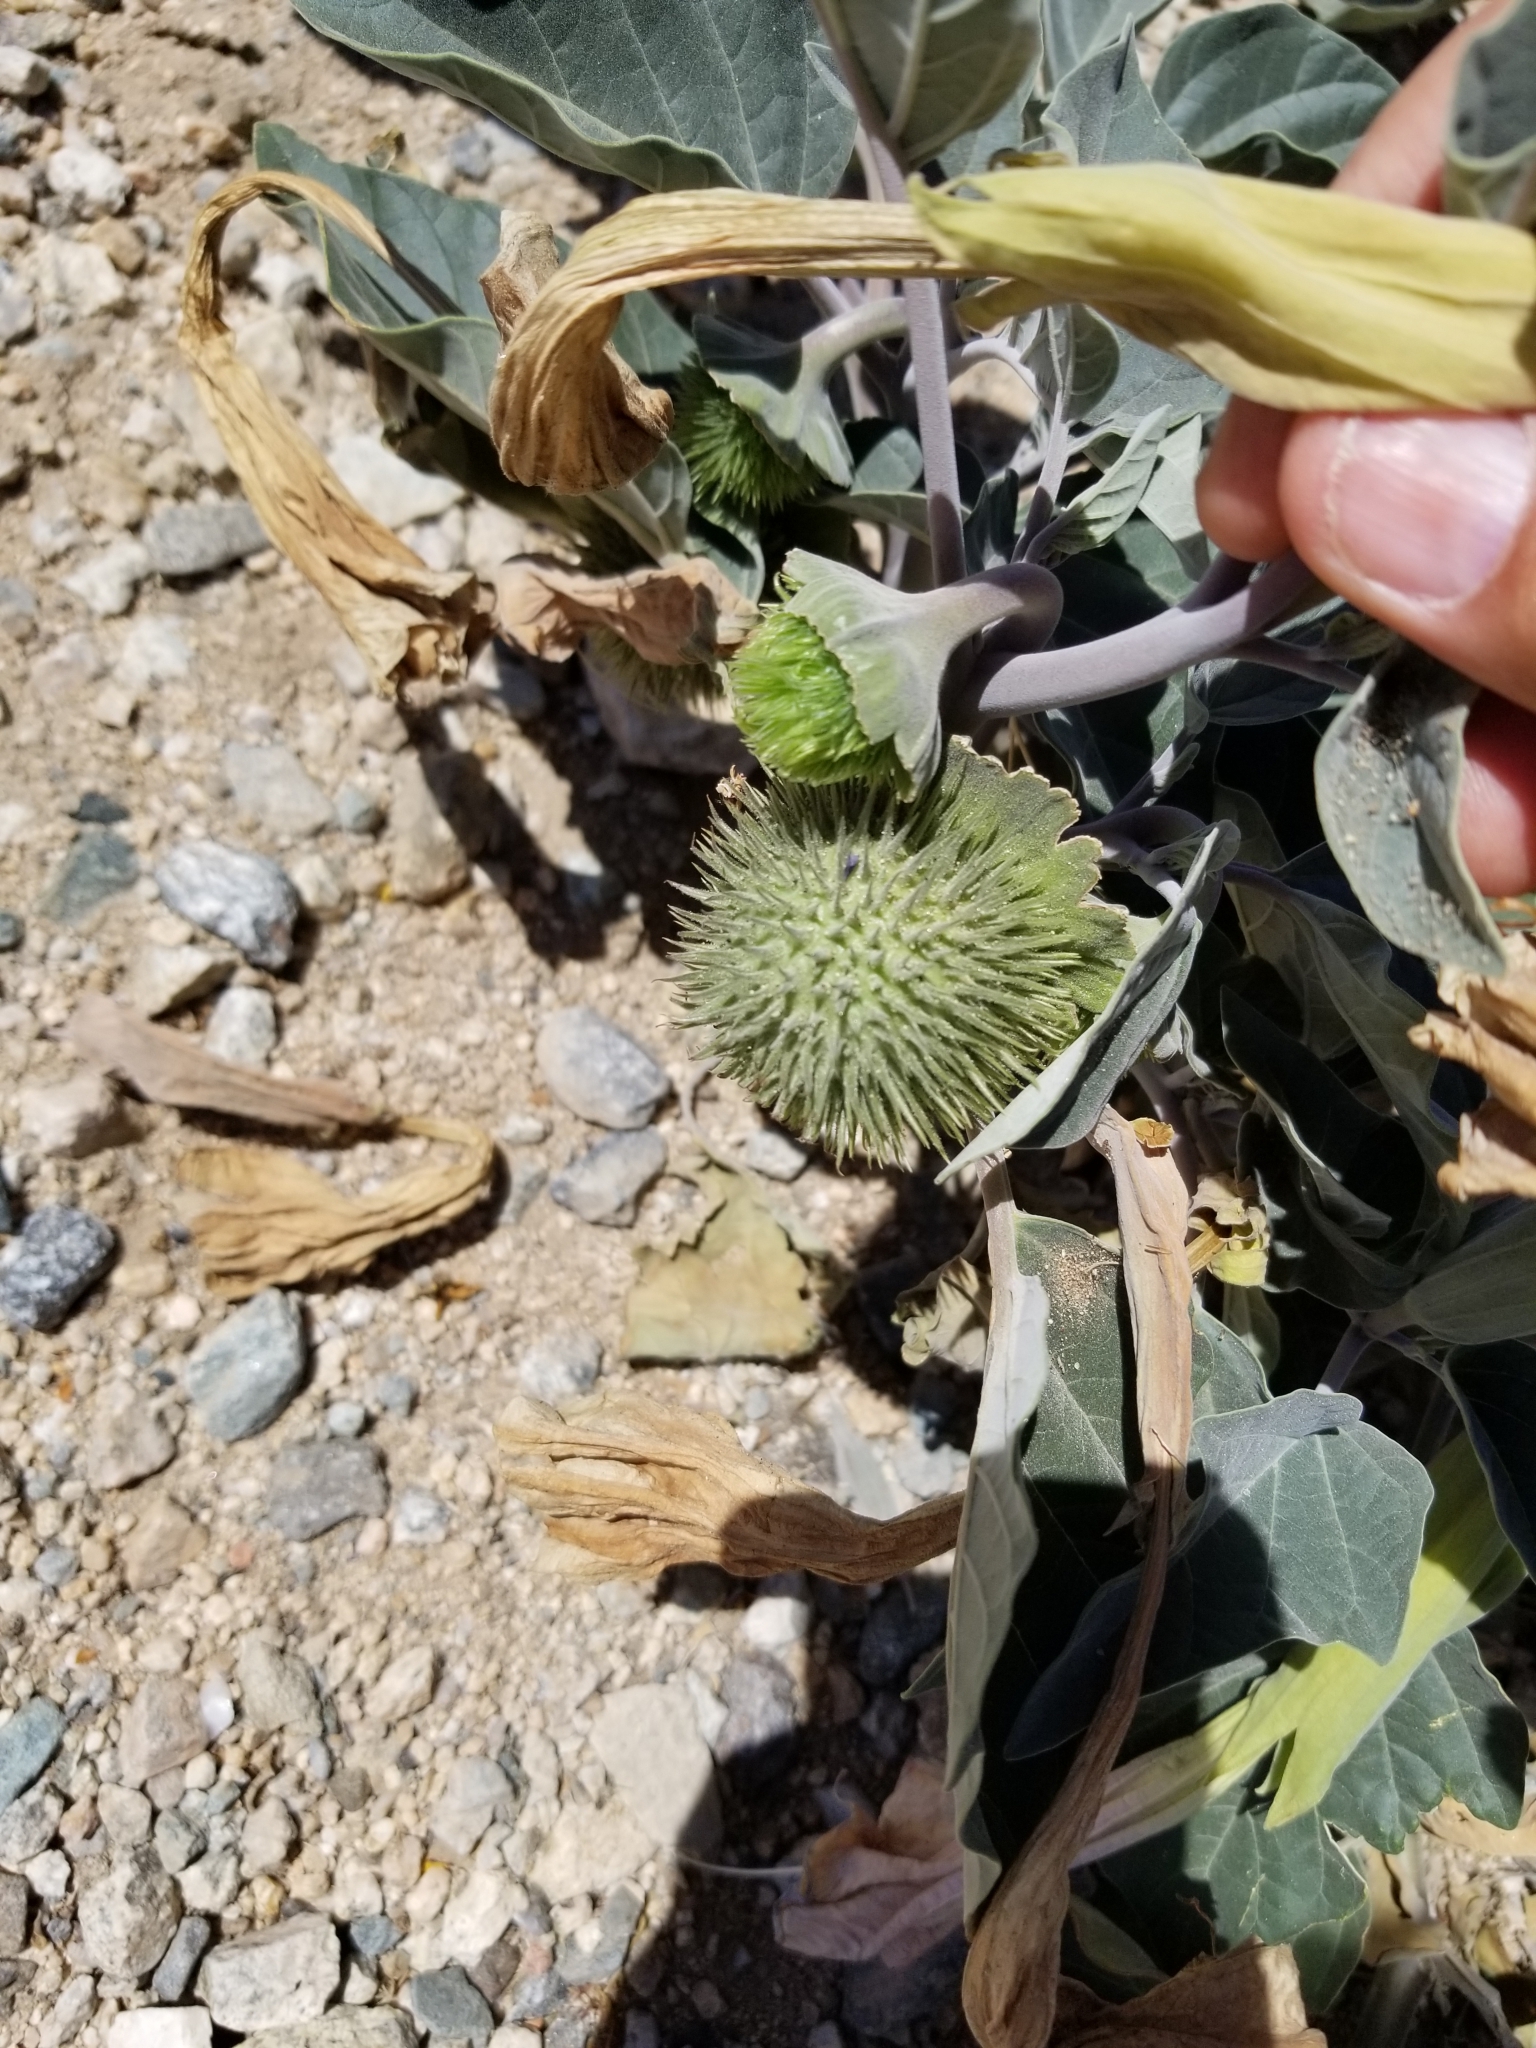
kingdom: Plantae
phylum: Tracheophyta
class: Magnoliopsida
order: Solanales
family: Solanaceae
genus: Datura
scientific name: Datura wrightii
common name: Sacred thorn-apple
